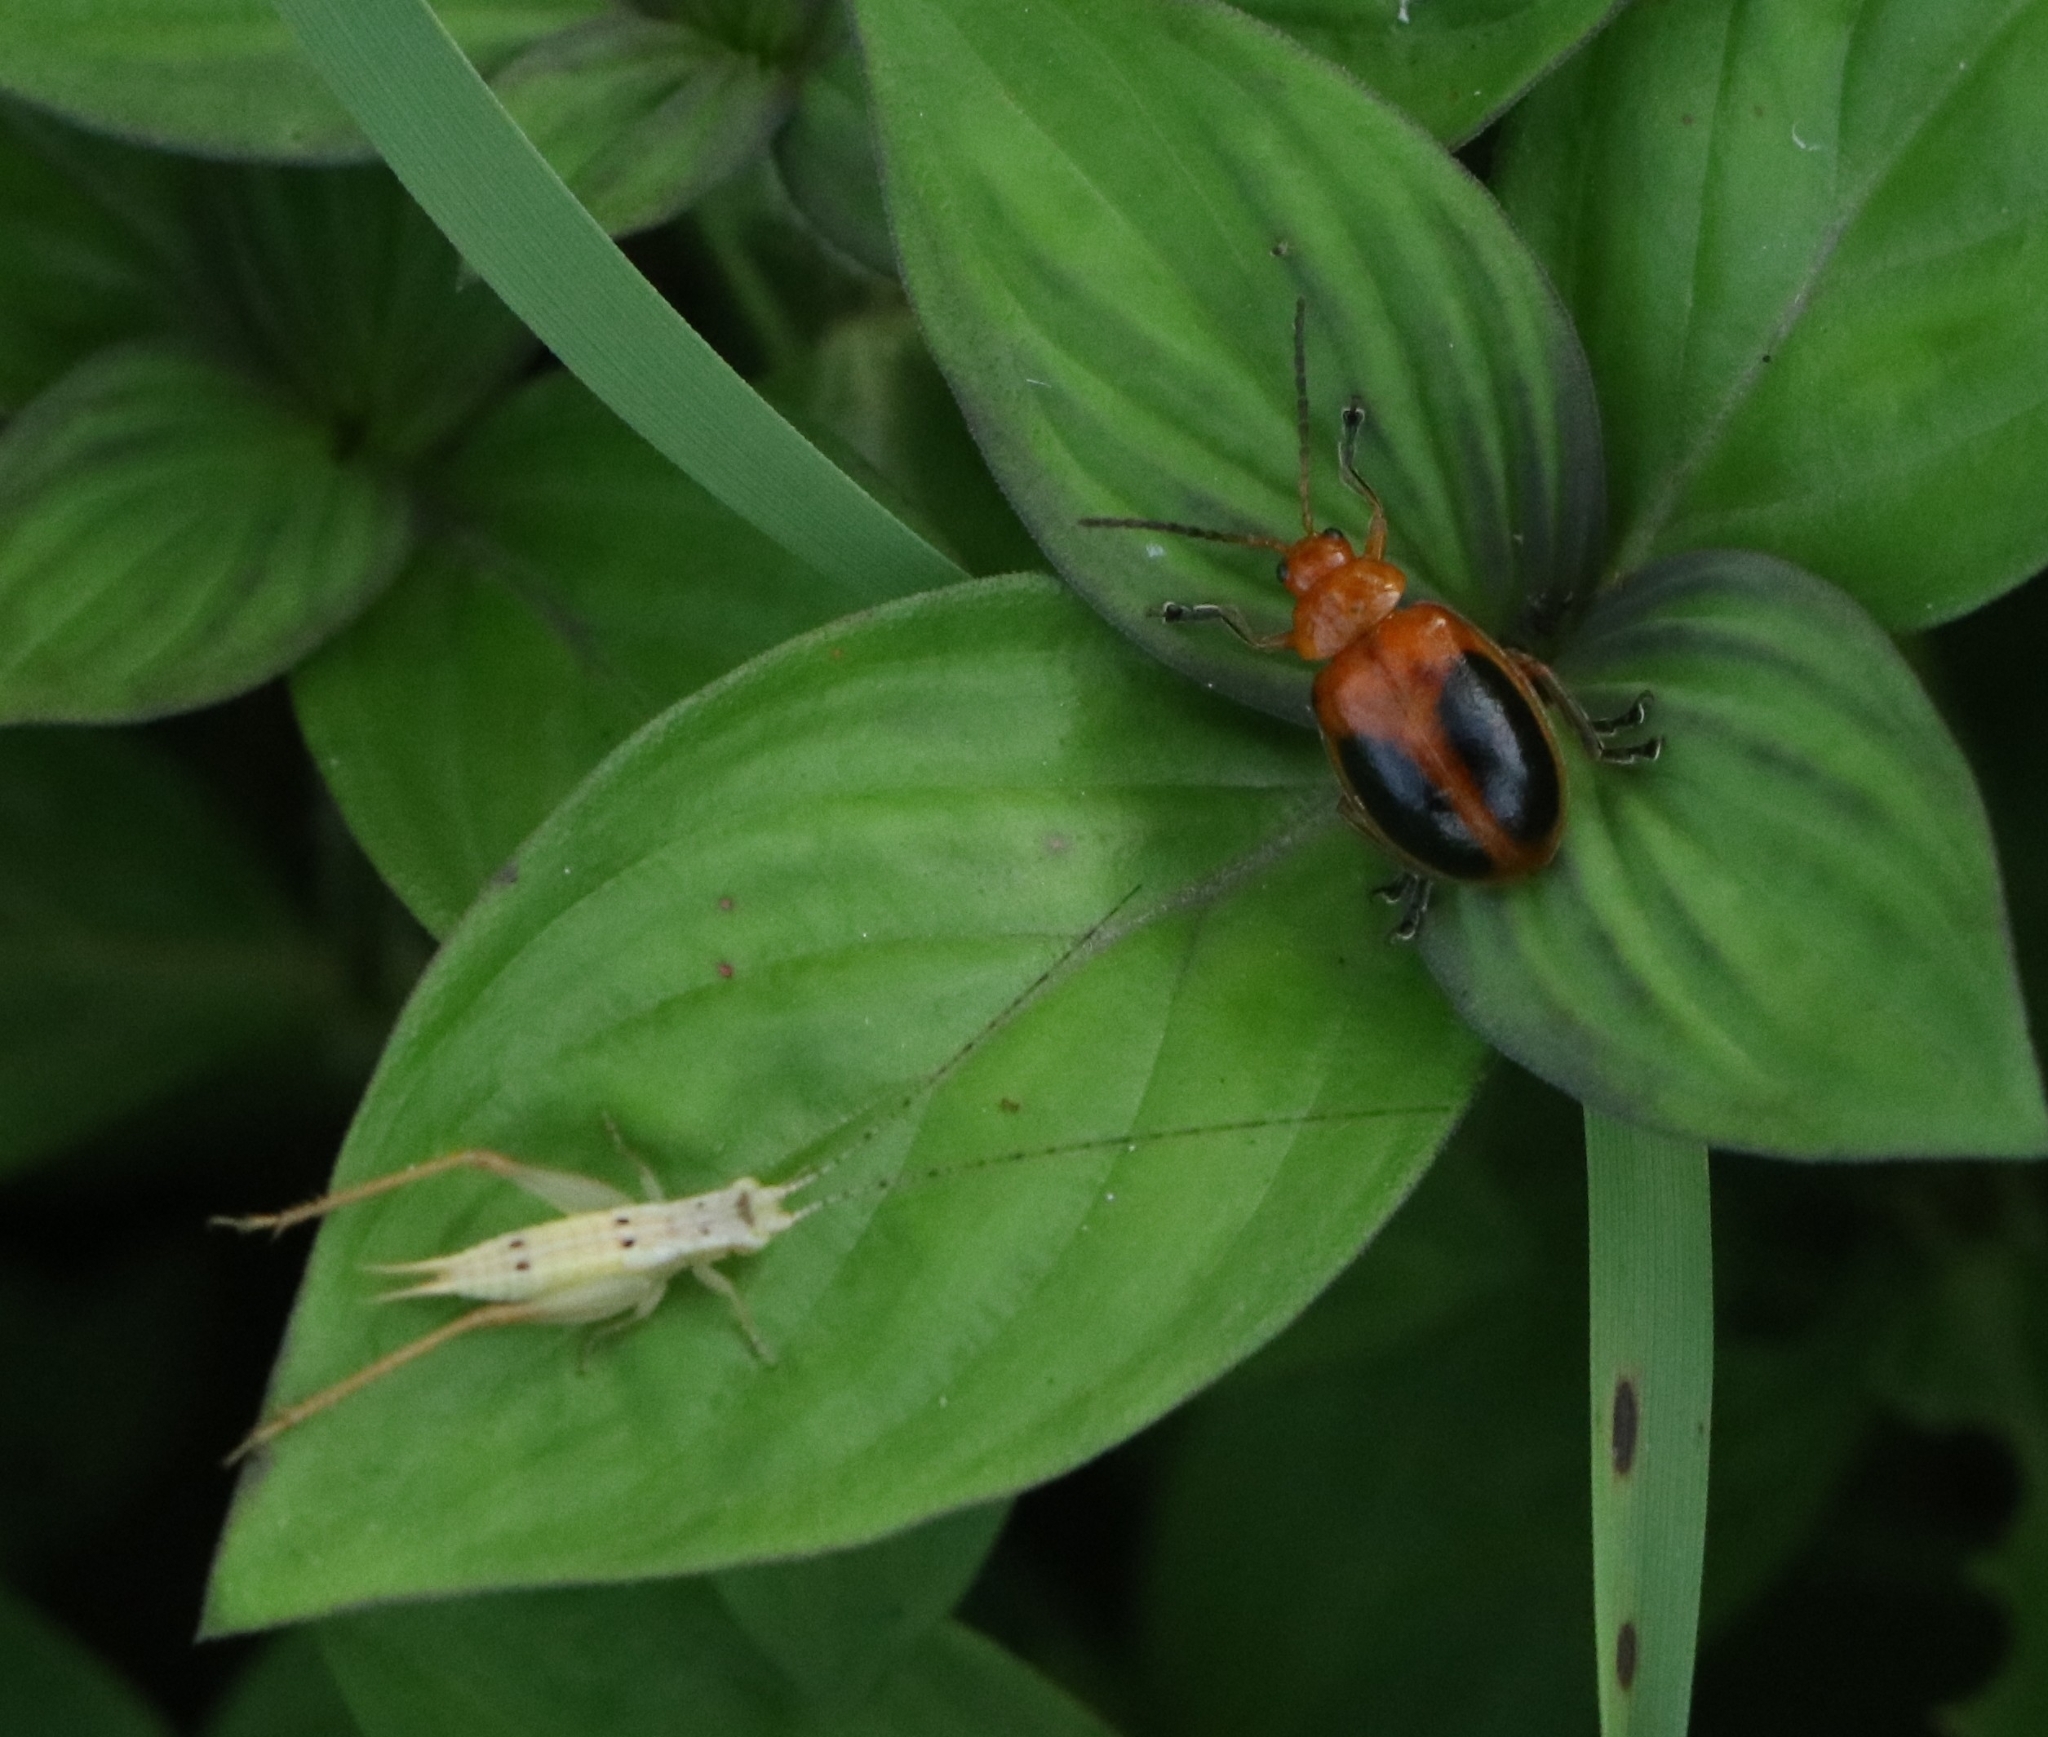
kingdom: Animalia
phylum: Arthropoda
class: Insecta
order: Coleoptera
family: Chrysomelidae
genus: Oides
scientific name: Oides affinis
